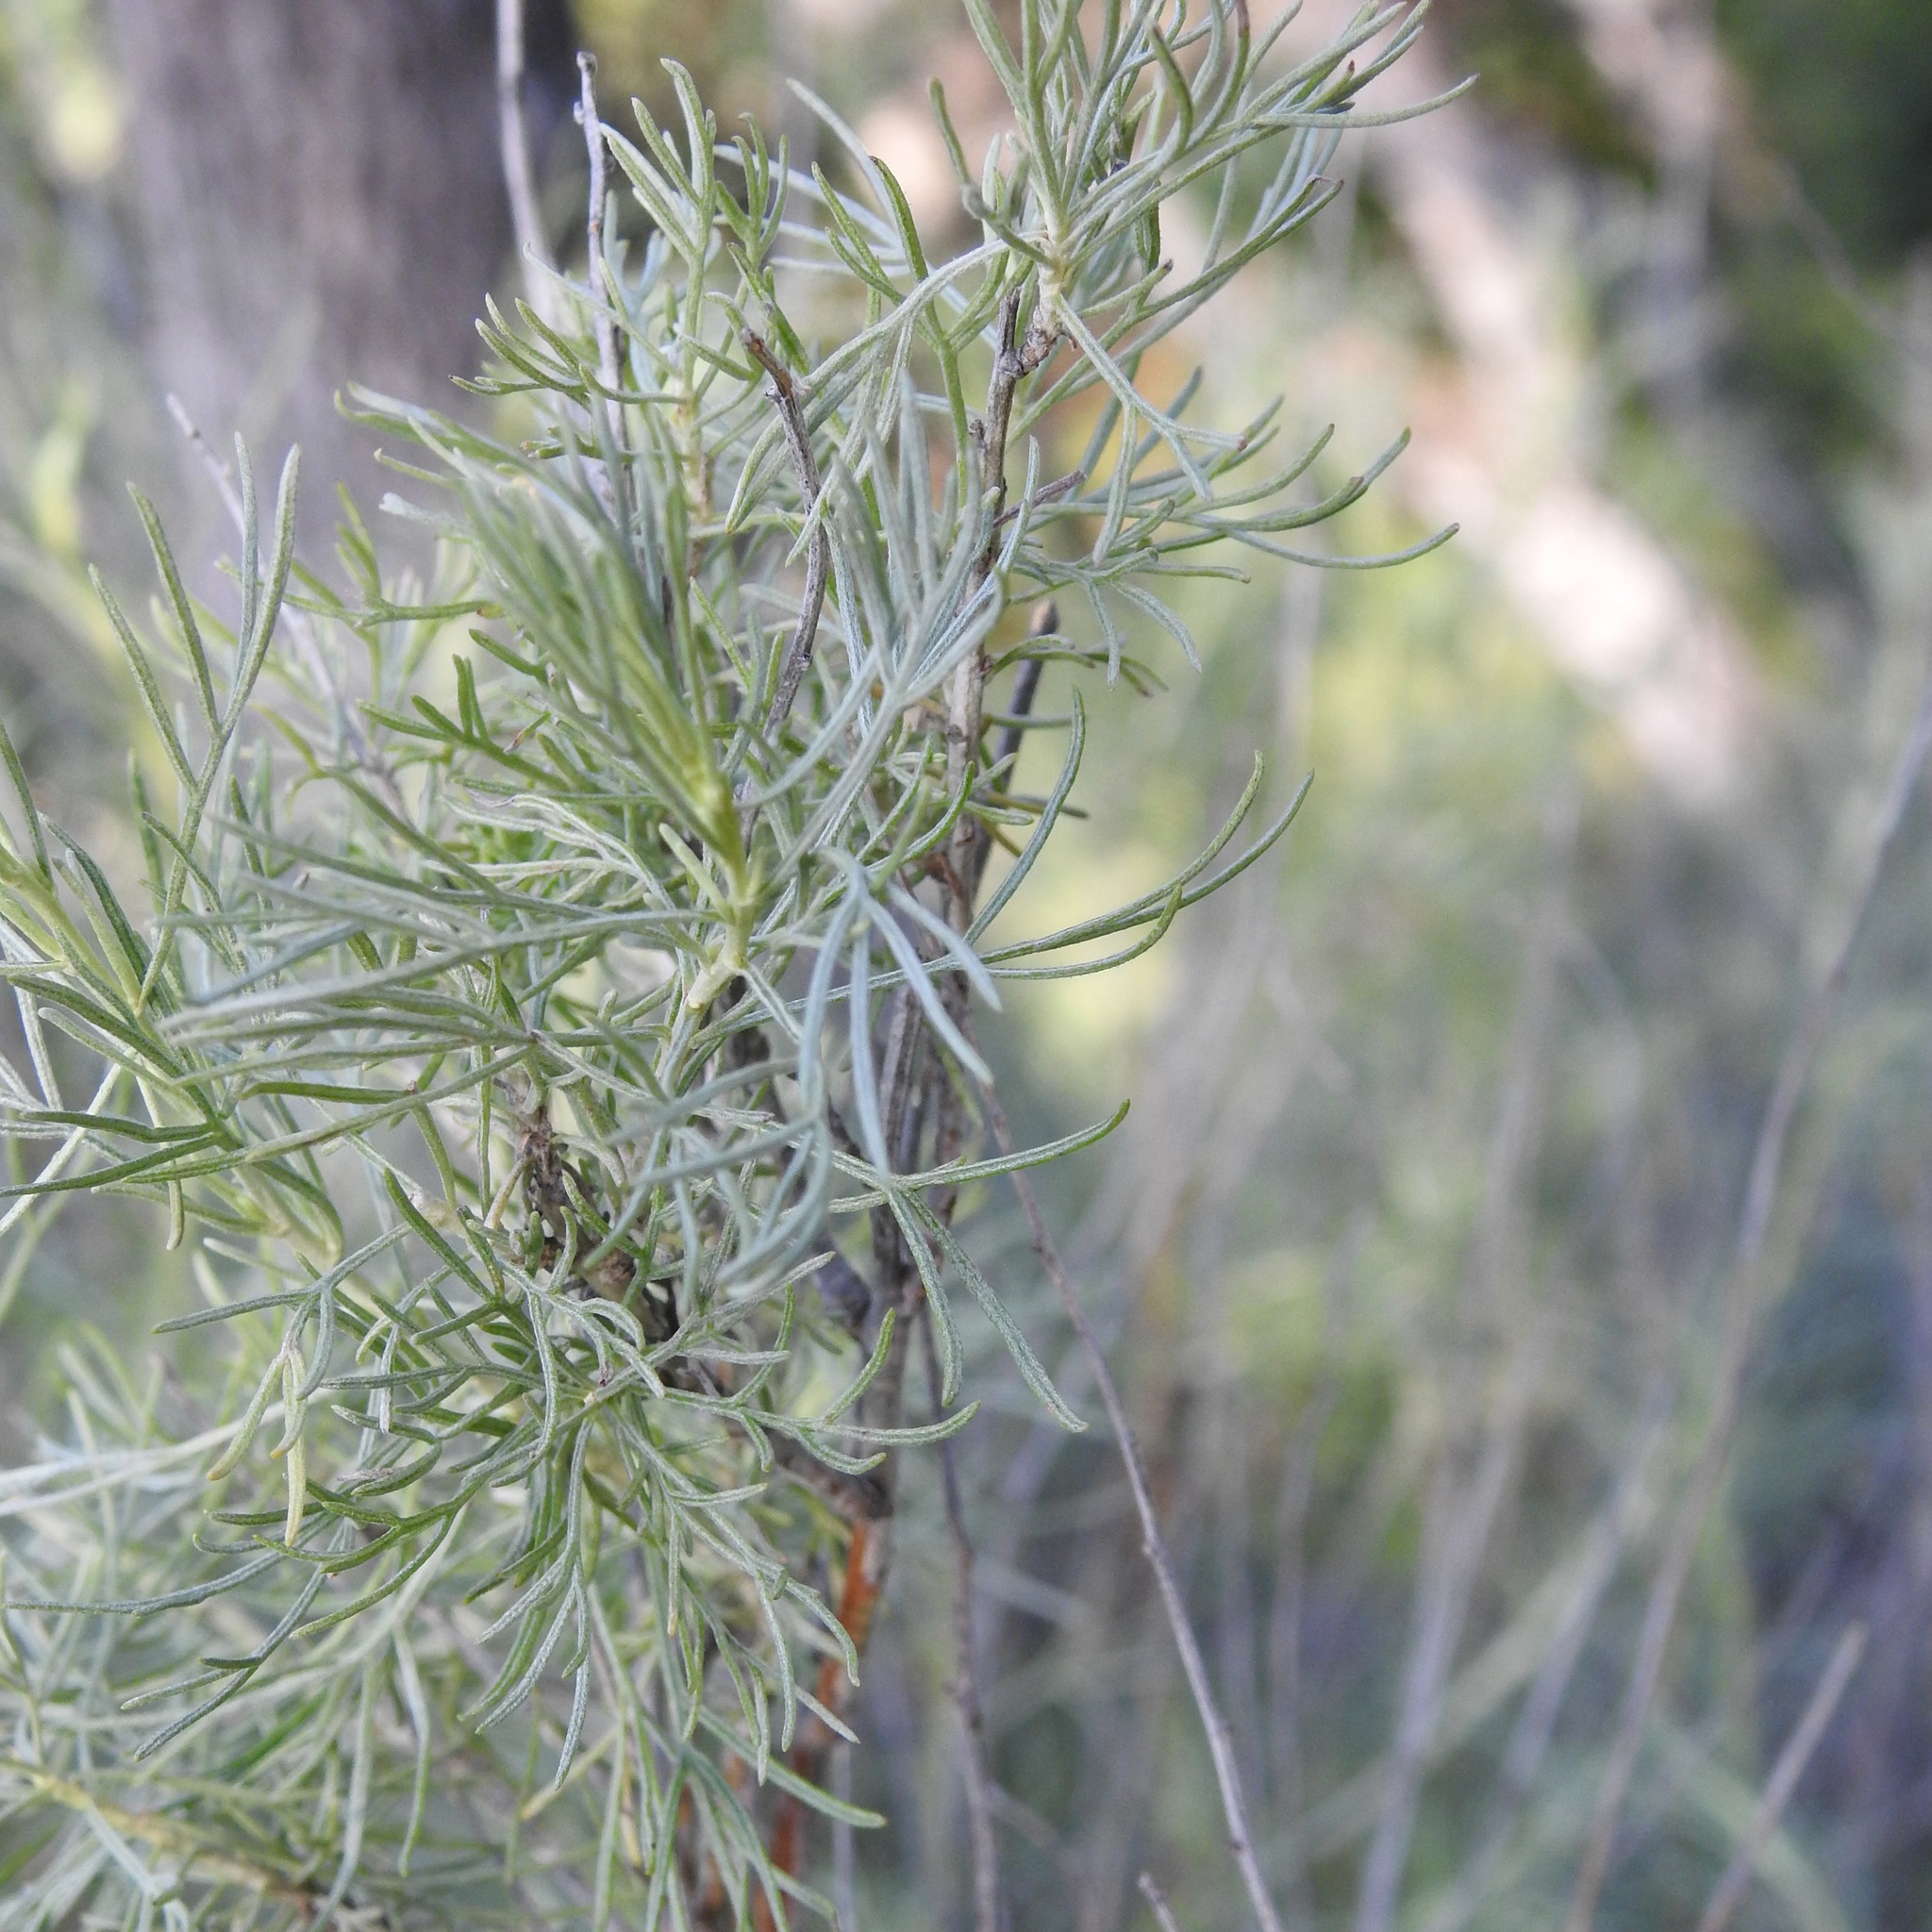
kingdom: Plantae
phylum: Tracheophyta
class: Magnoliopsida
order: Asterales
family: Asteraceae
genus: Artemisia
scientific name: Artemisia californica
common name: California sagebrush
